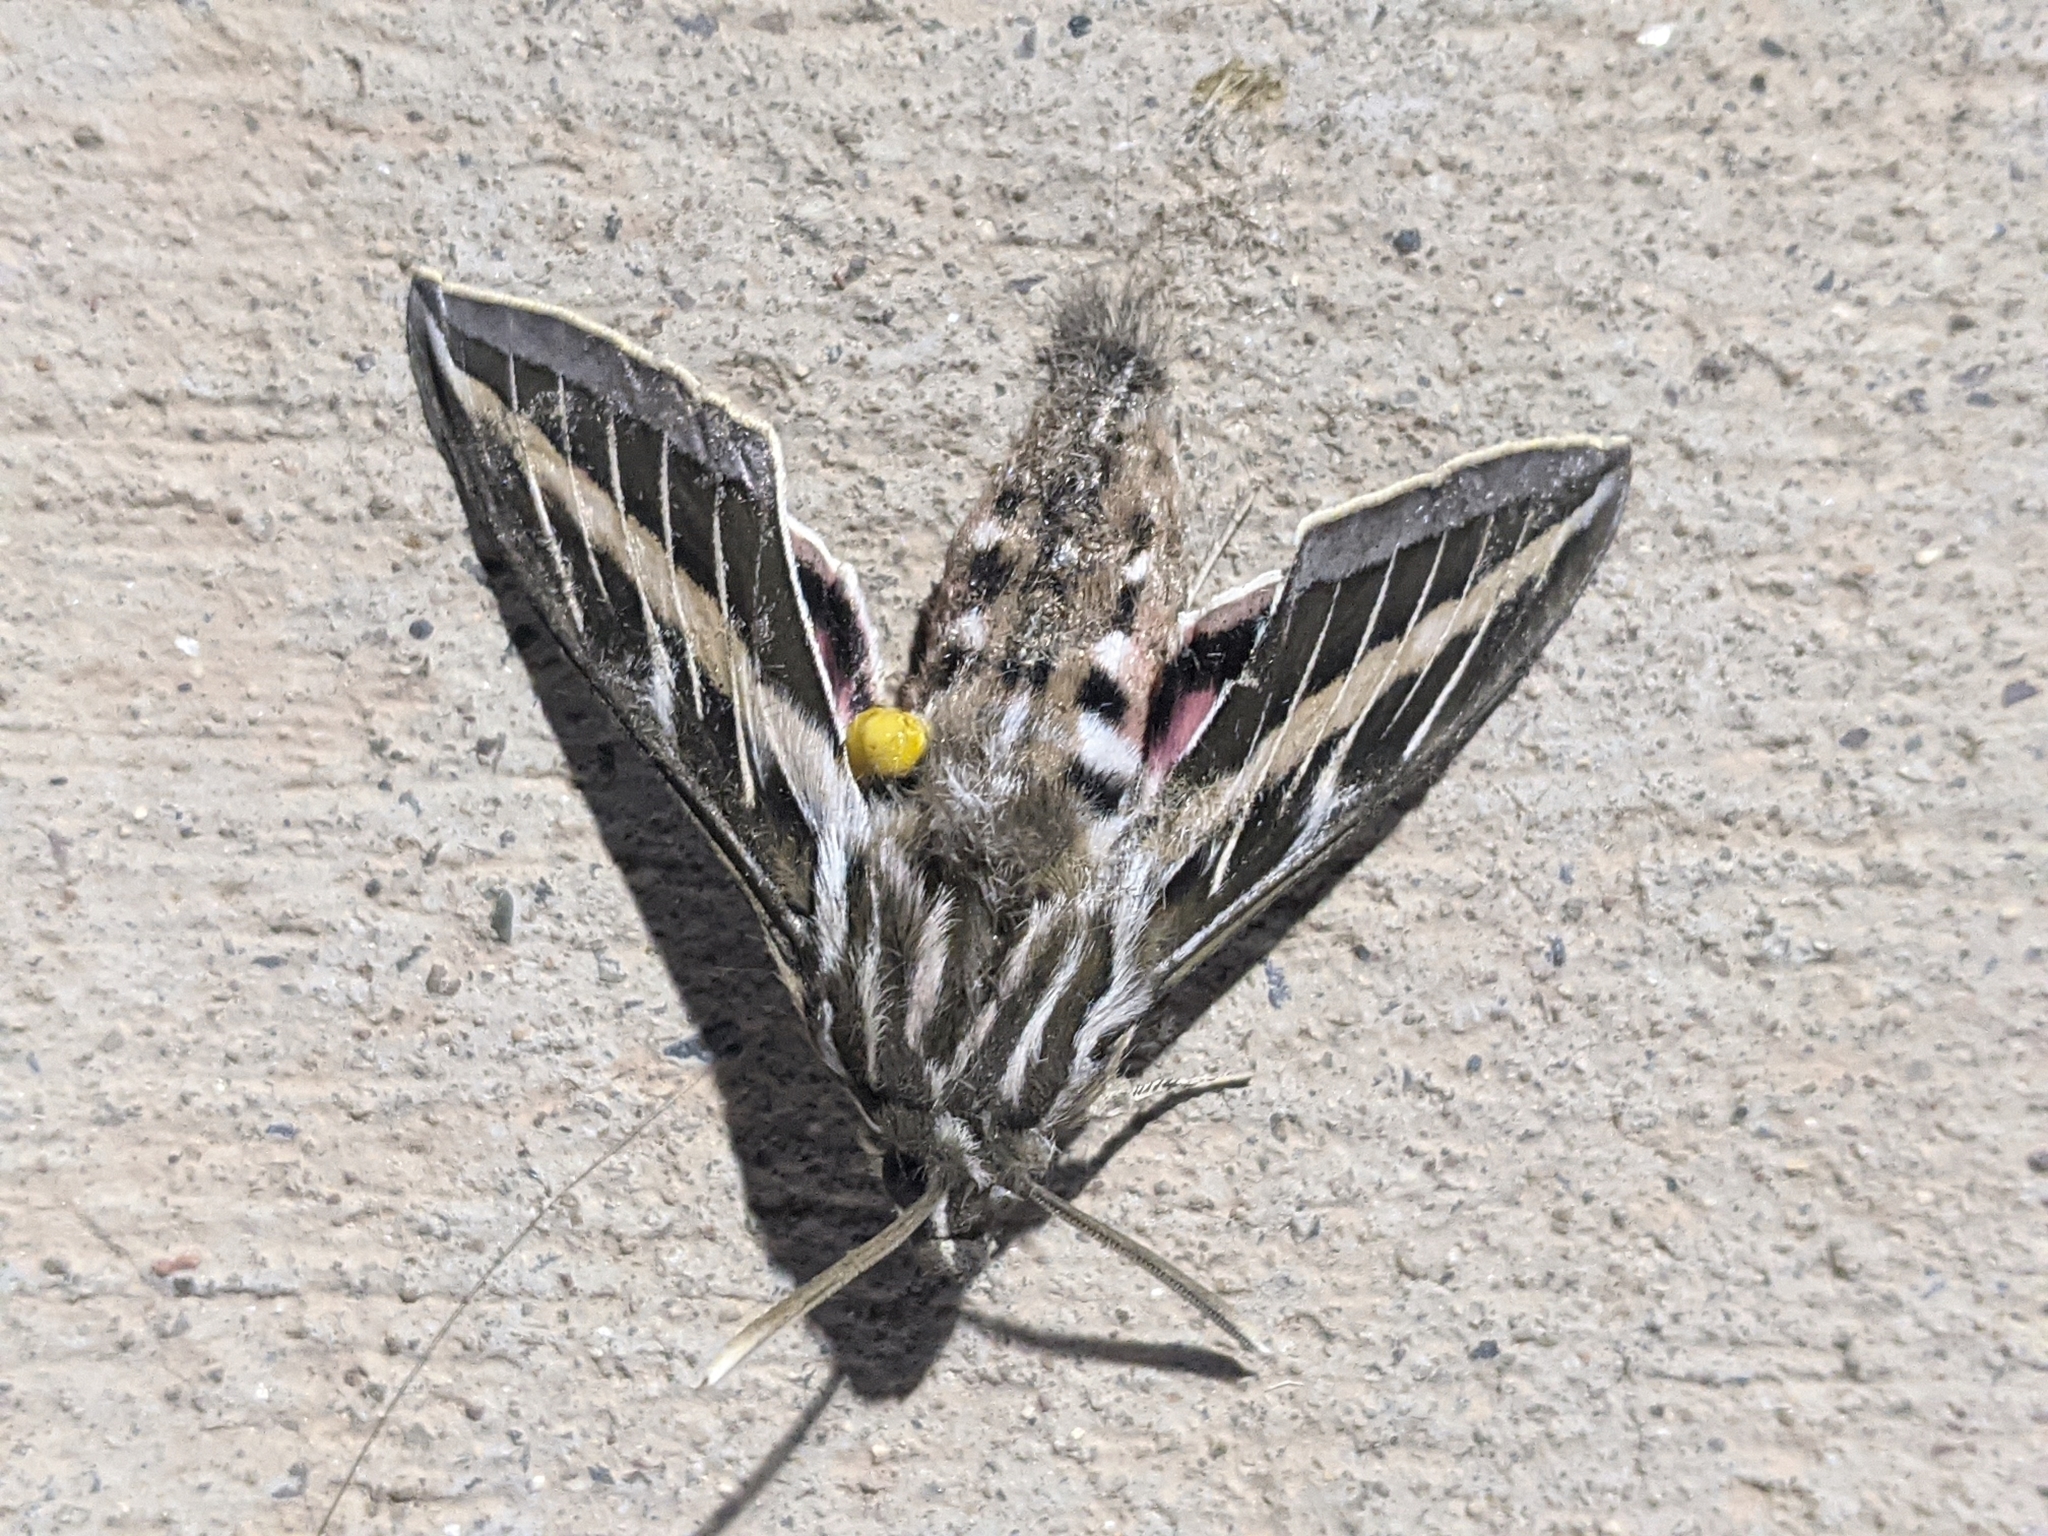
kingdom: Animalia
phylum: Arthropoda
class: Insecta
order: Lepidoptera
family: Sphingidae
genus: Hyles
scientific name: Hyles lineata
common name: White-lined sphinx
